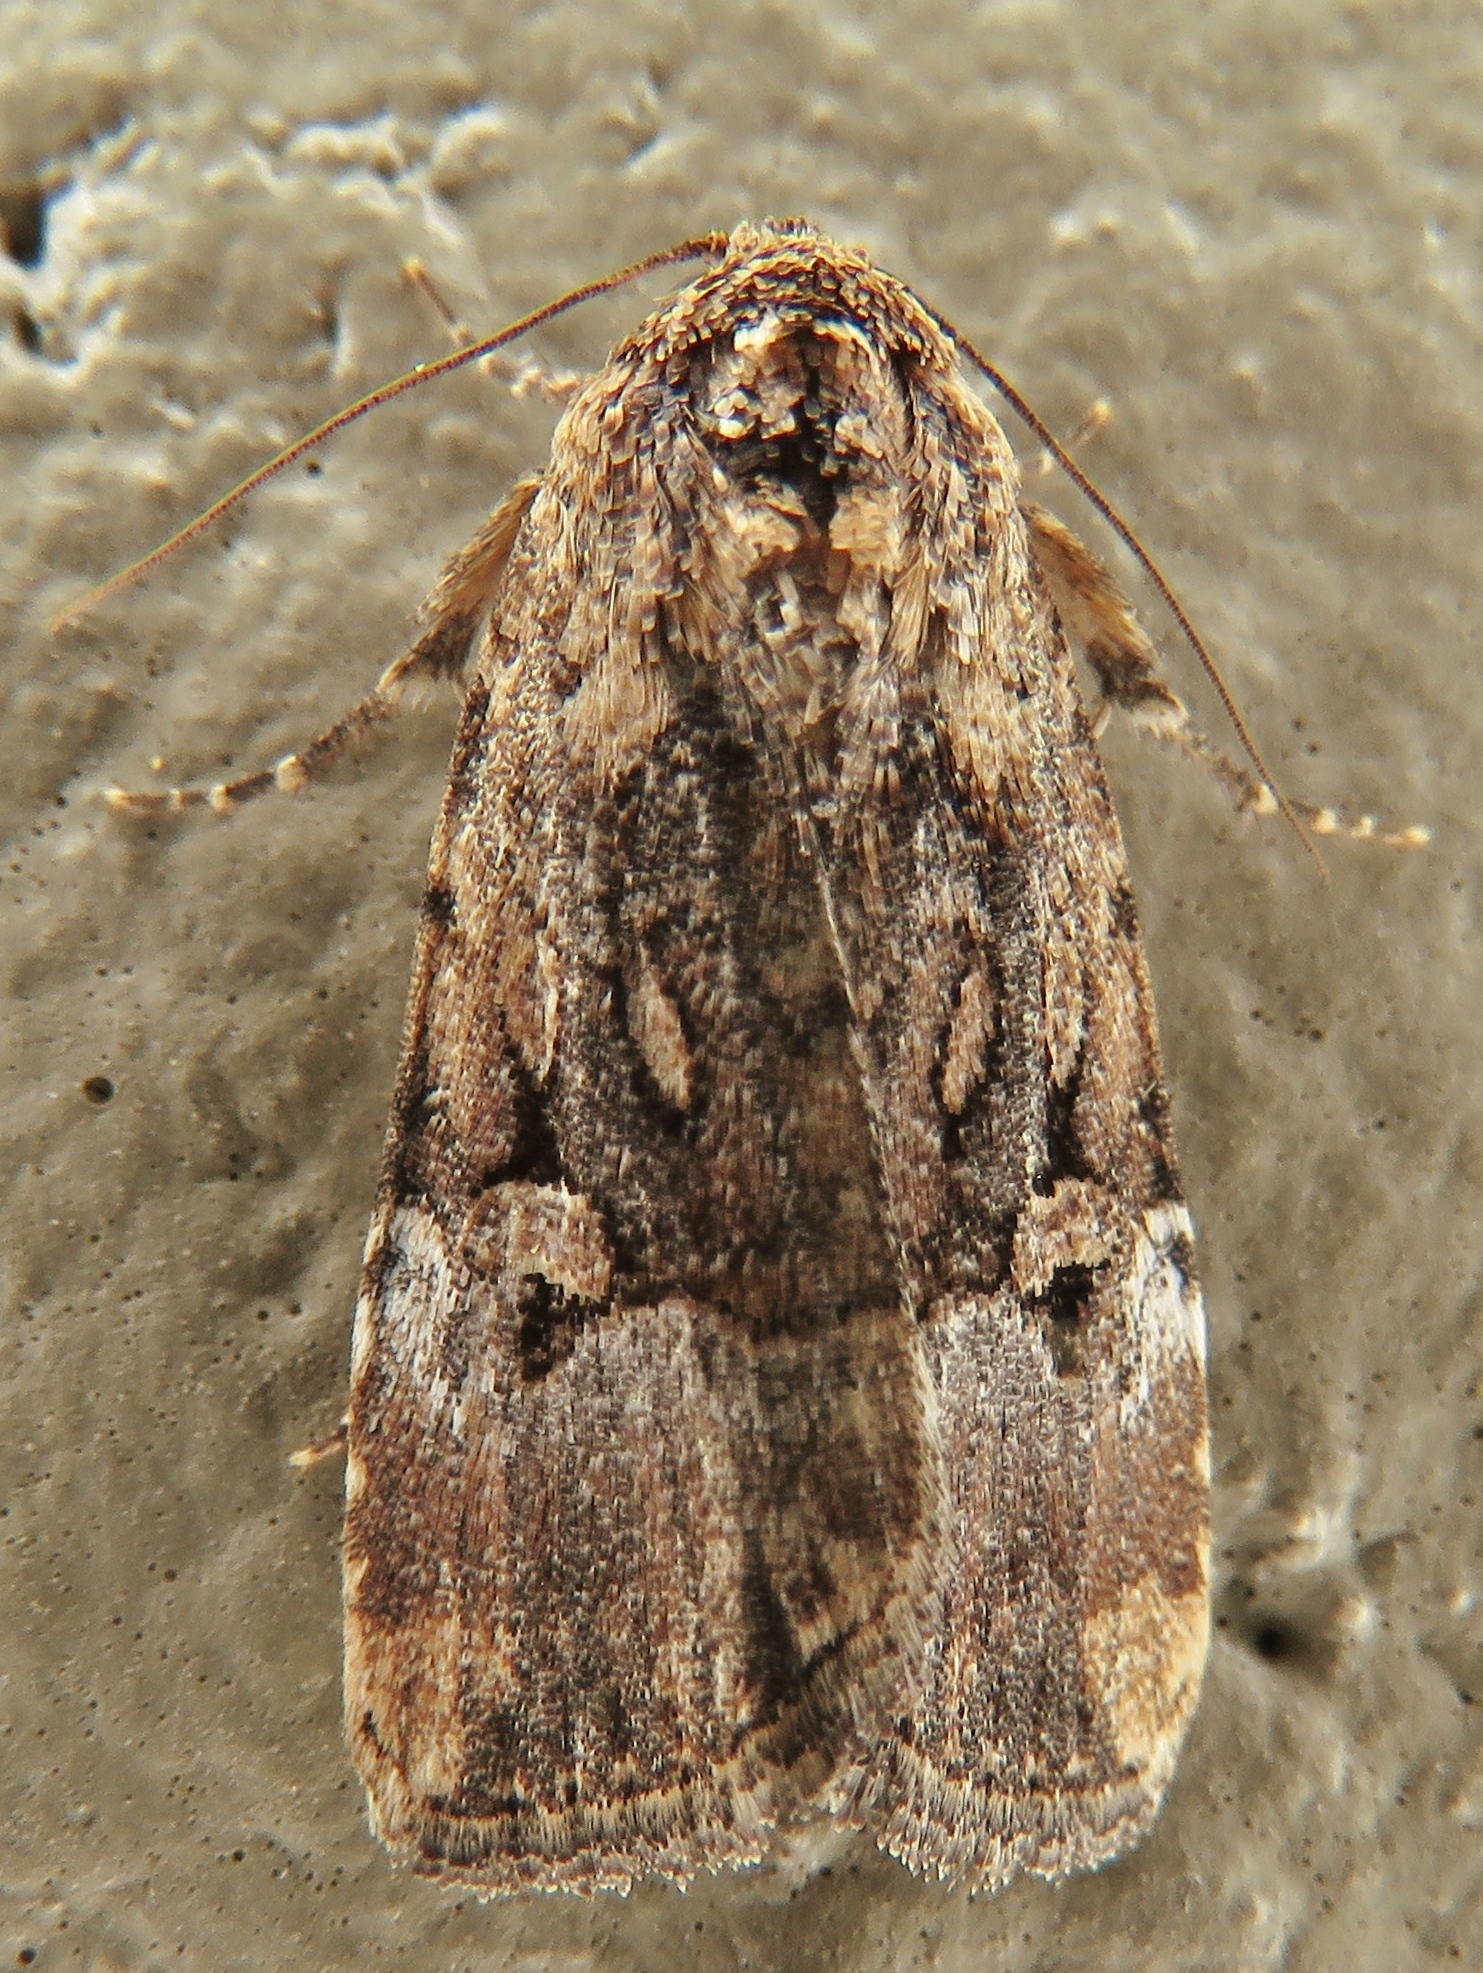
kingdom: Animalia
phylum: Arthropoda
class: Insecta
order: Lepidoptera
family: Noctuidae
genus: Elaphria
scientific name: Elaphria chalcedonia
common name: Chalcedony midget
